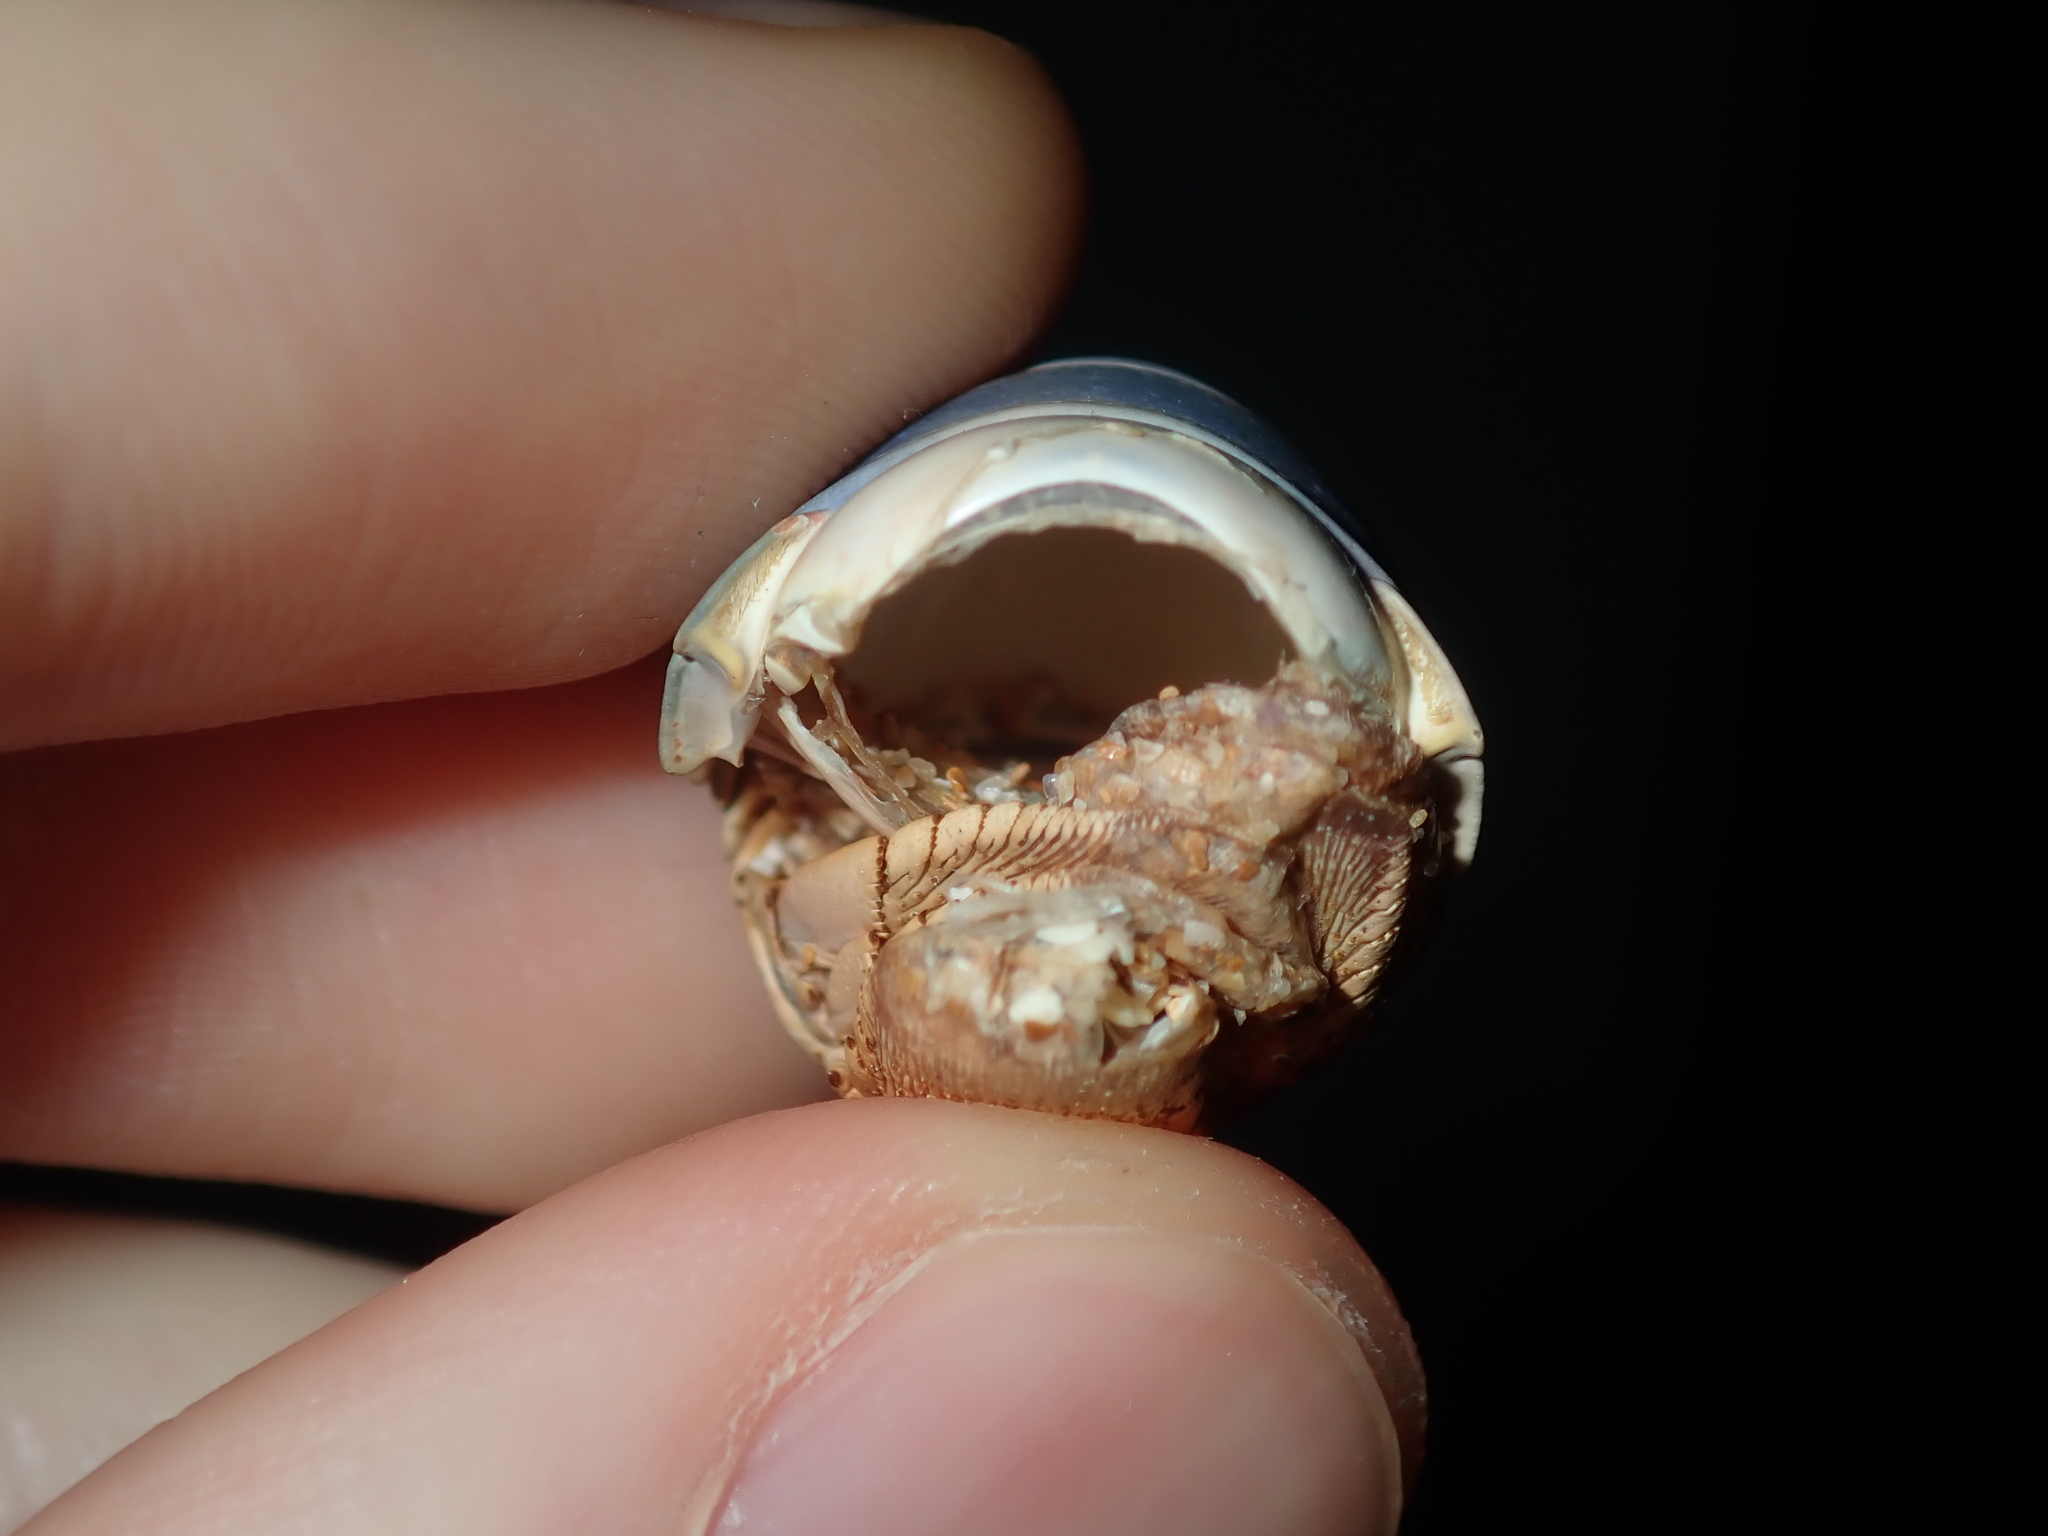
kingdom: Animalia
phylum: Arthropoda
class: Malacostraca
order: Decapoda
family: Palinuridae
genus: Sagmariasus
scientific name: Sagmariasus verreauxi
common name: Green rock lobster
